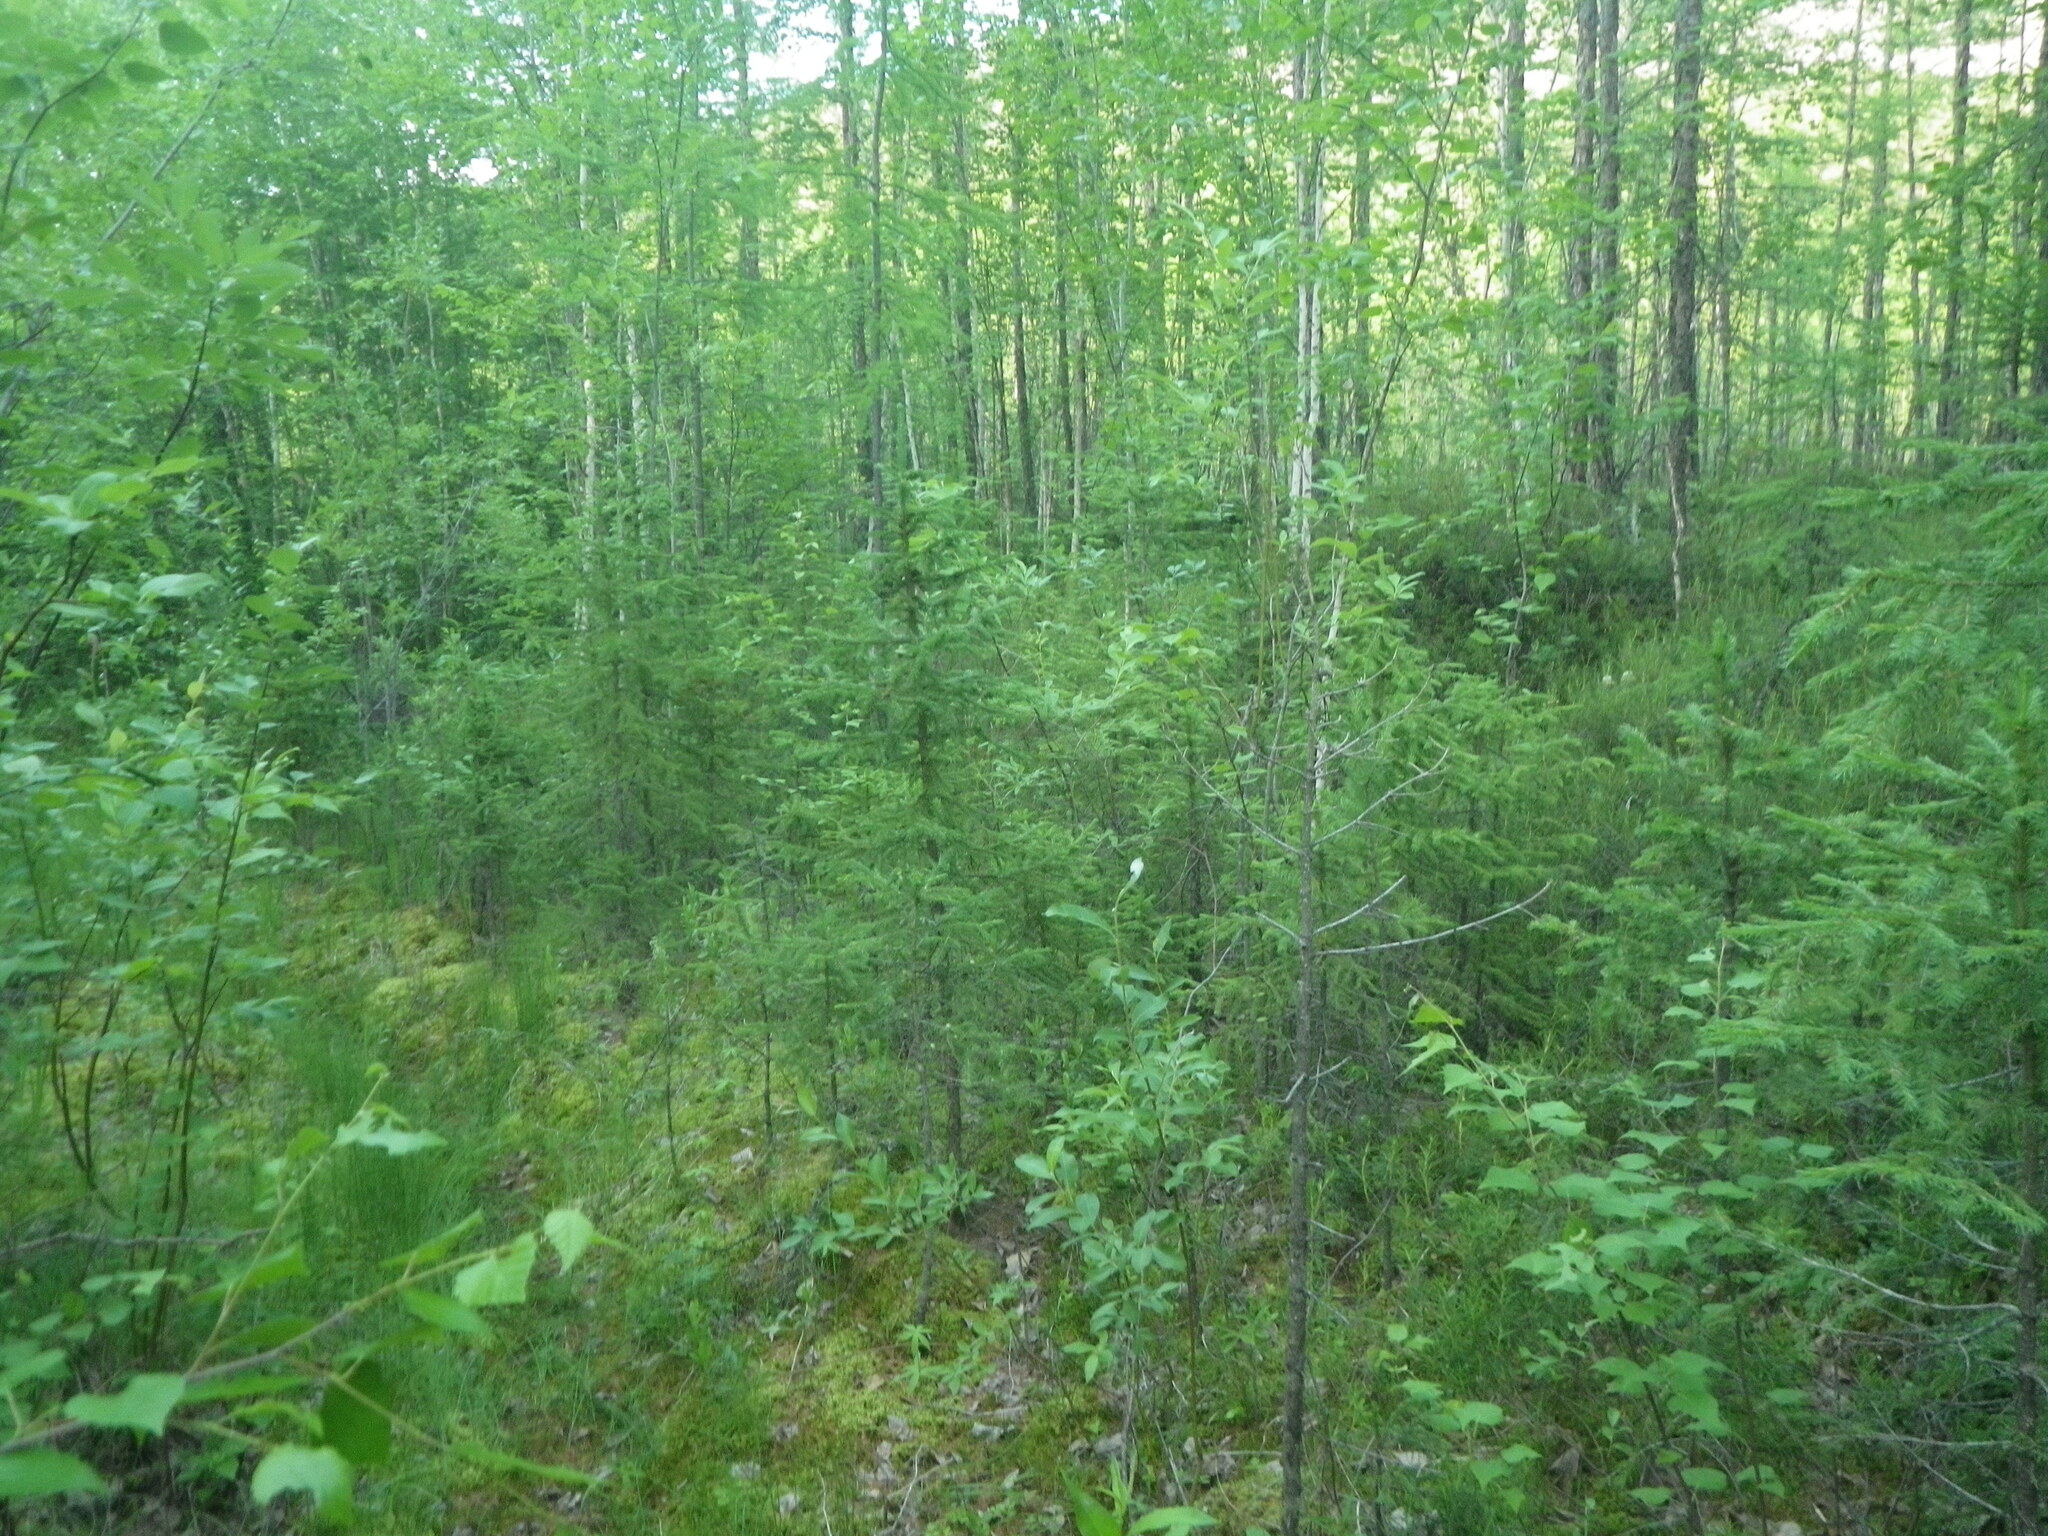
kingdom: Plantae
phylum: Tracheophyta
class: Pinopsida
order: Pinales
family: Pinaceae
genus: Picea
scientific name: Picea obovata
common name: Siberian spruce
